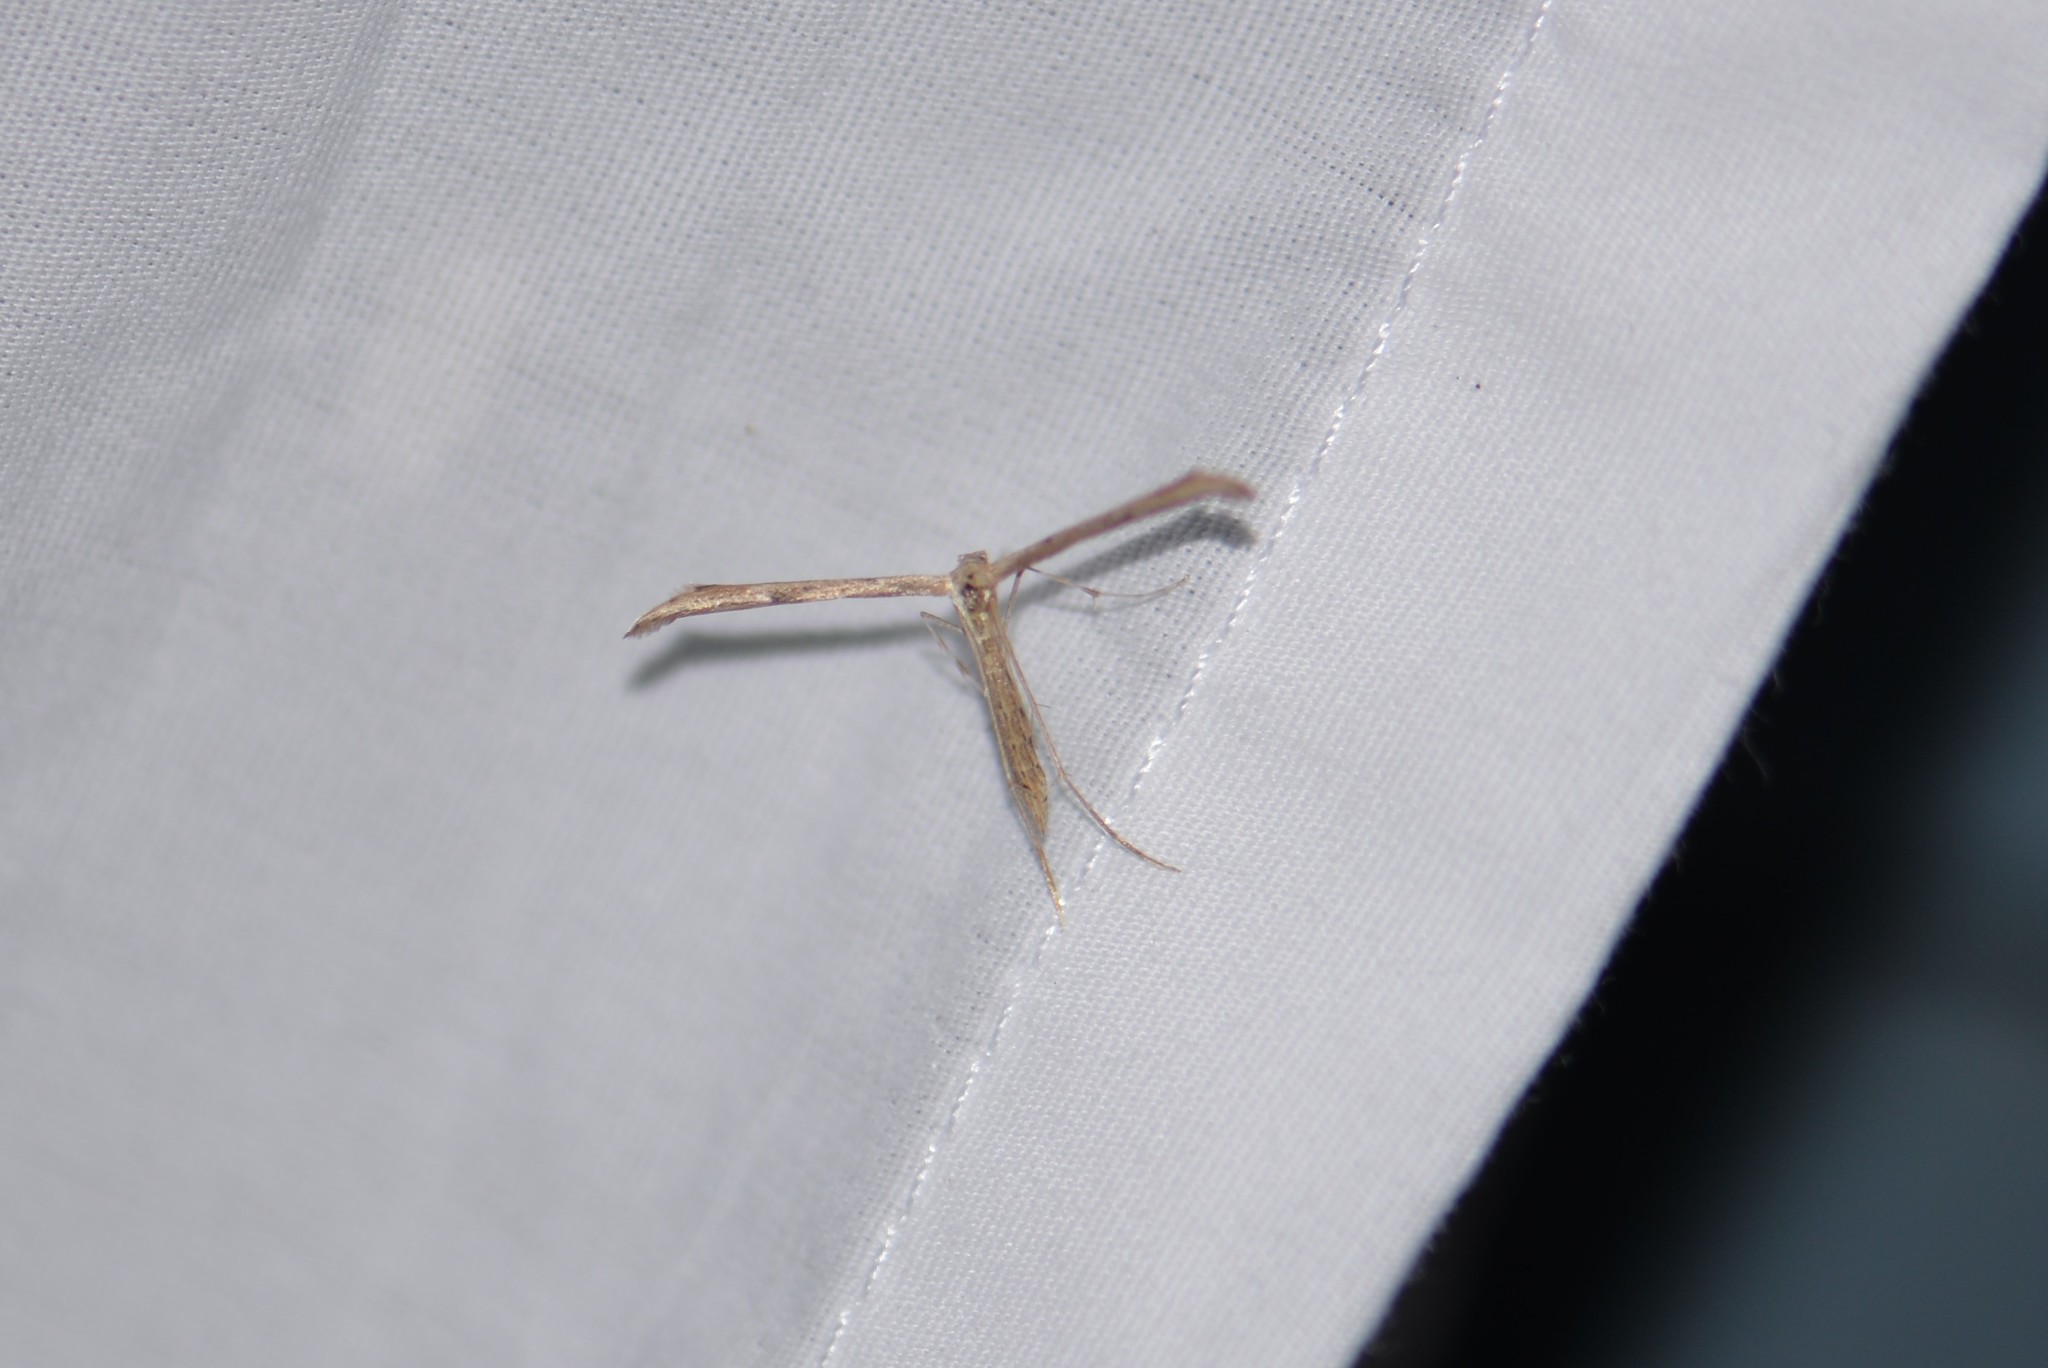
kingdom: Animalia
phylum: Arthropoda
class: Insecta
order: Lepidoptera
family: Pterophoridae
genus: Emmelina
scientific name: Emmelina monodactyla
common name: Common plume
